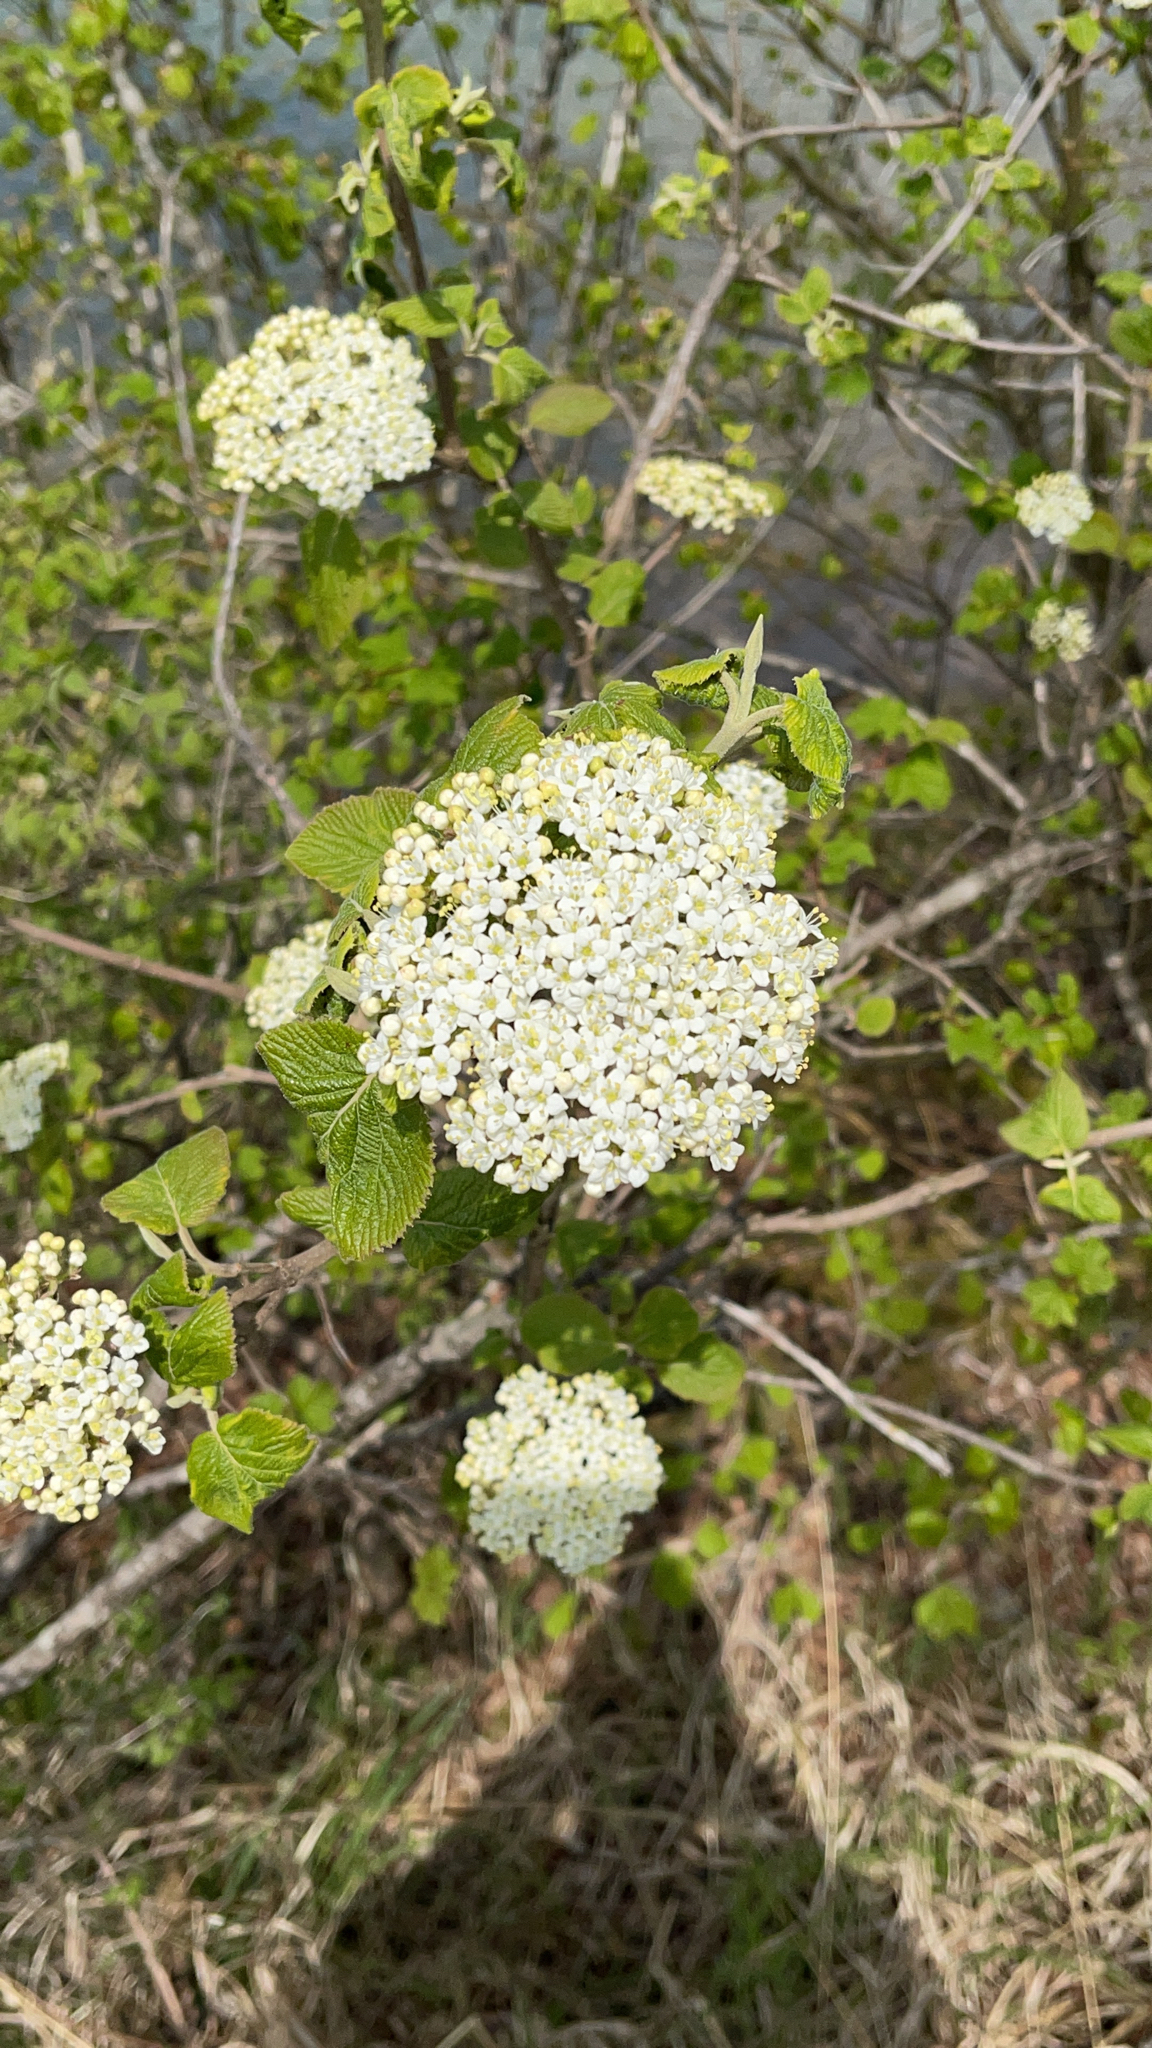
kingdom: Plantae
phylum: Tracheophyta
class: Magnoliopsida
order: Dipsacales
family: Viburnaceae
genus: Viburnum
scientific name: Viburnum lantana
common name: Wayfaring tree
